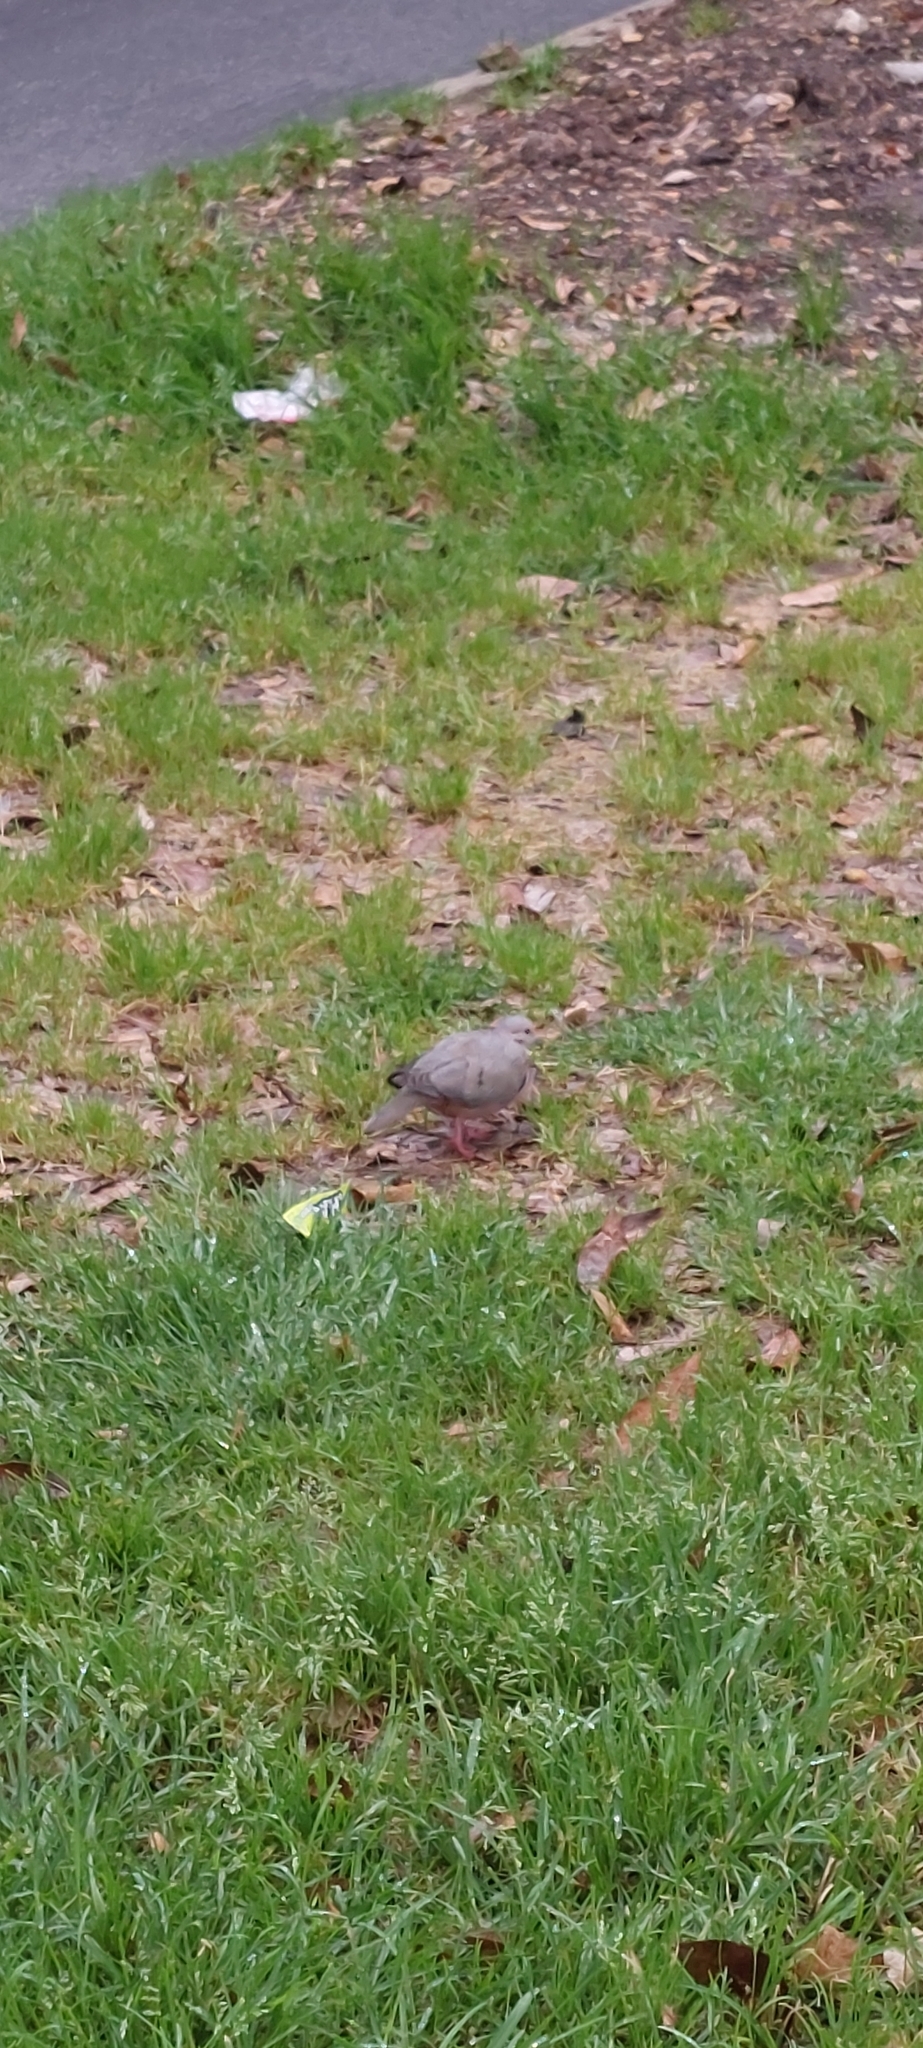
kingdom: Animalia
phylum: Chordata
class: Aves
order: Columbiformes
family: Columbidae
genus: Zenaida
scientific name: Zenaida auriculata
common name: Eared dove
